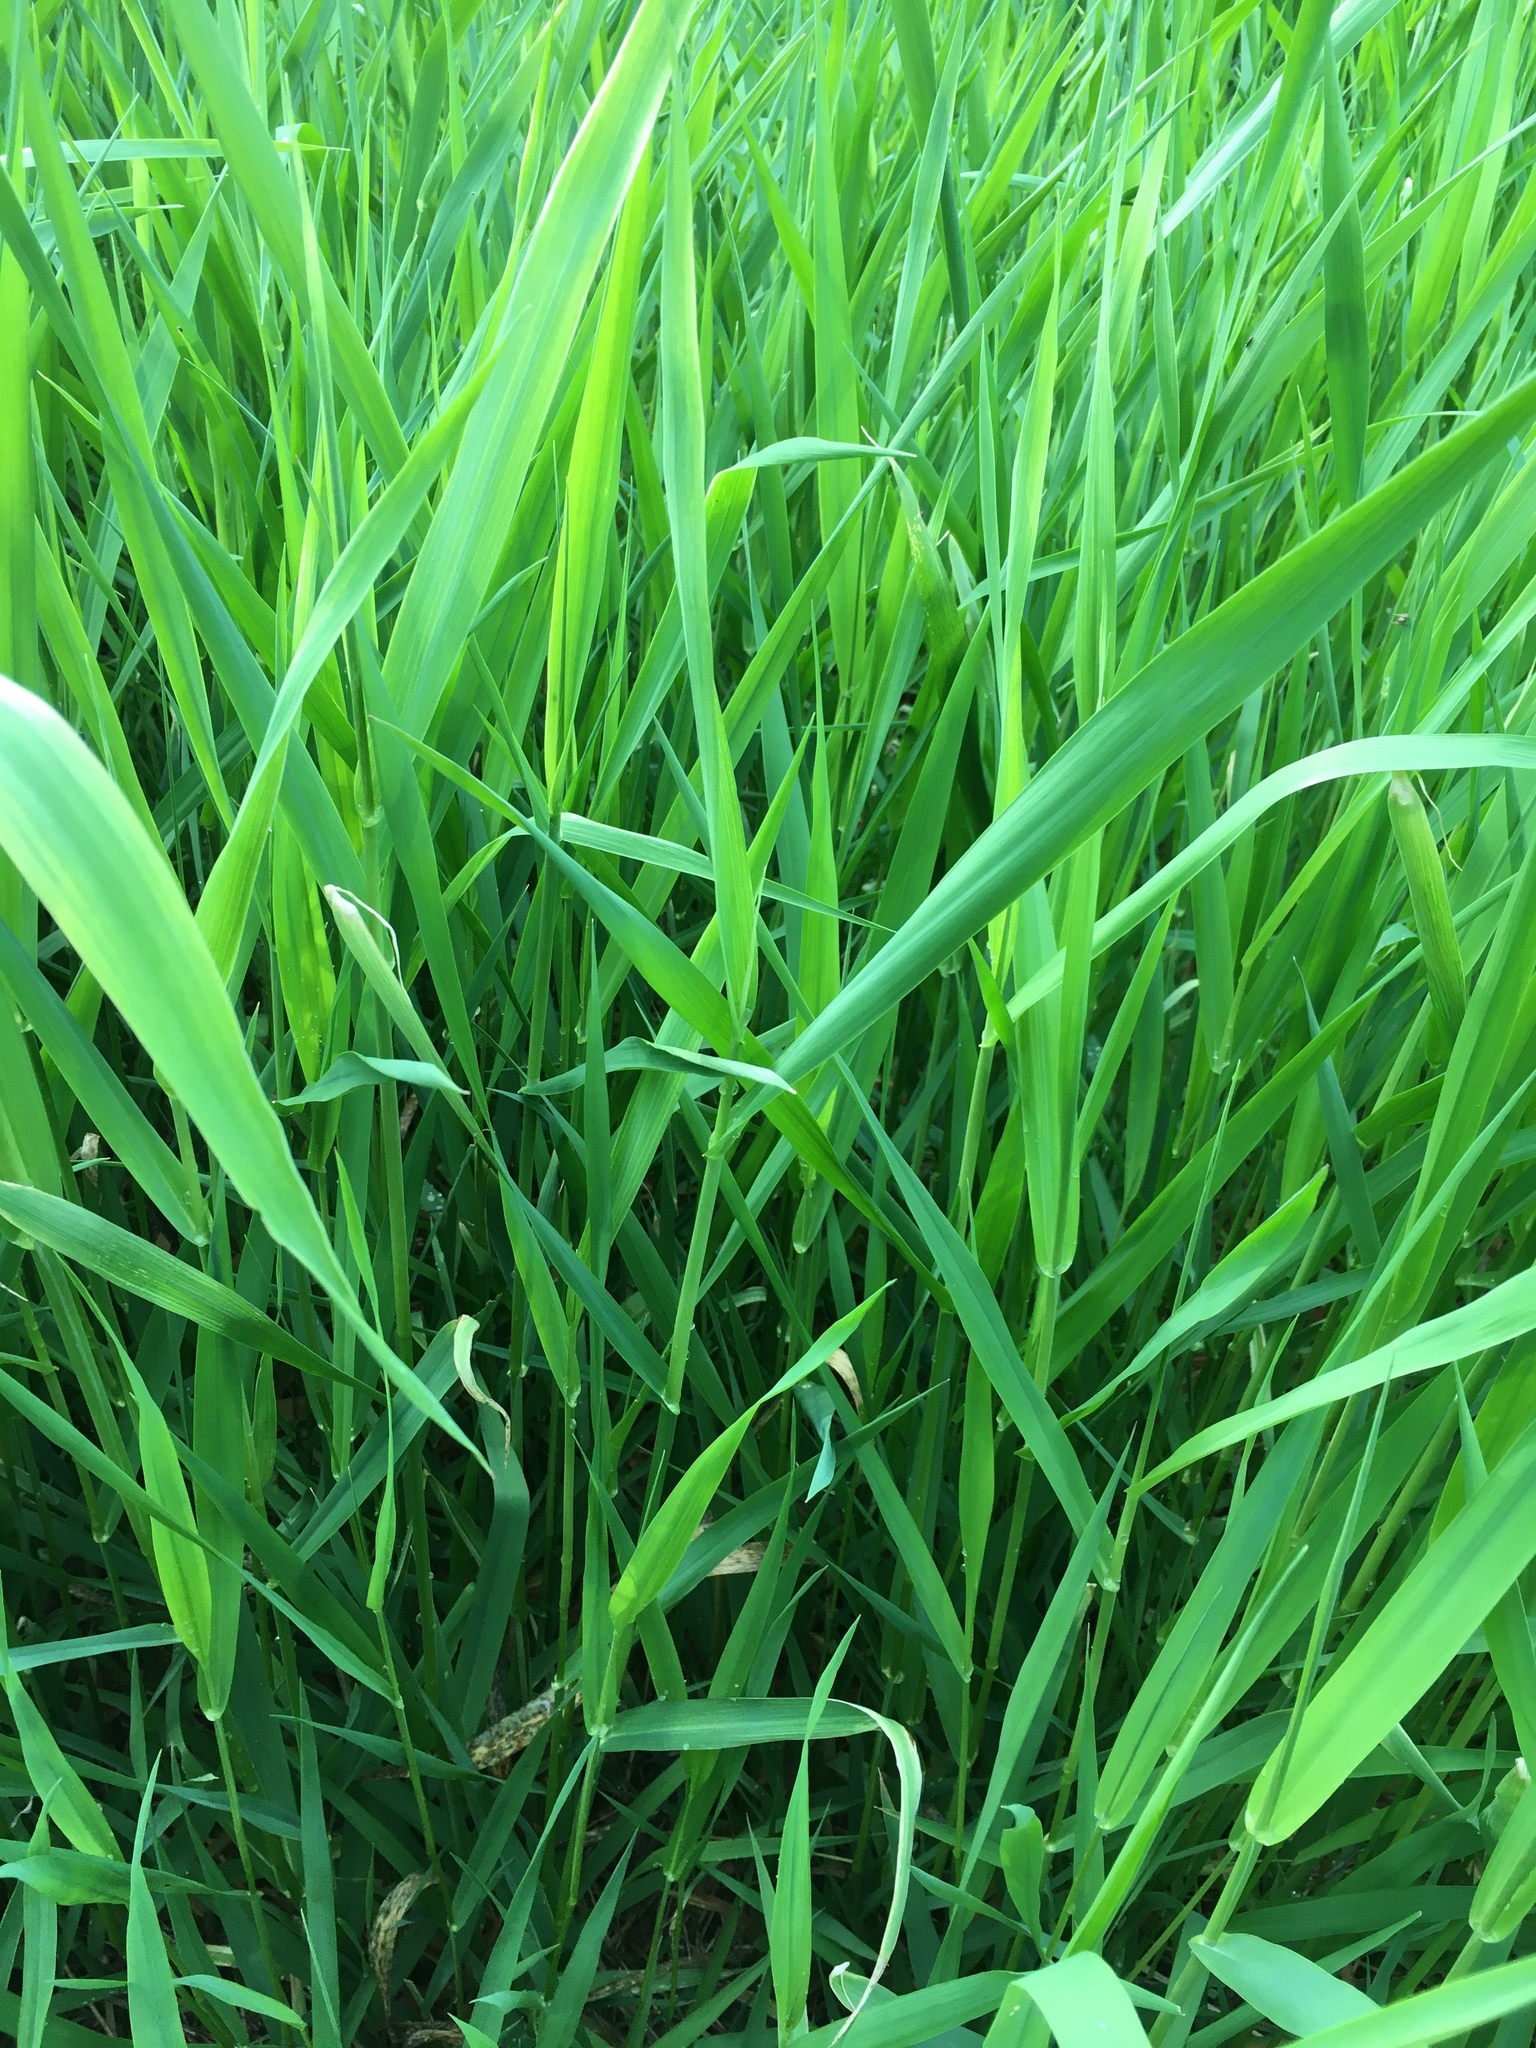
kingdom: Plantae
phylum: Tracheophyta
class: Liliopsida
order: Poales
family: Poaceae
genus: Phalaris
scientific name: Phalaris arundinacea
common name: Reed canary-grass
